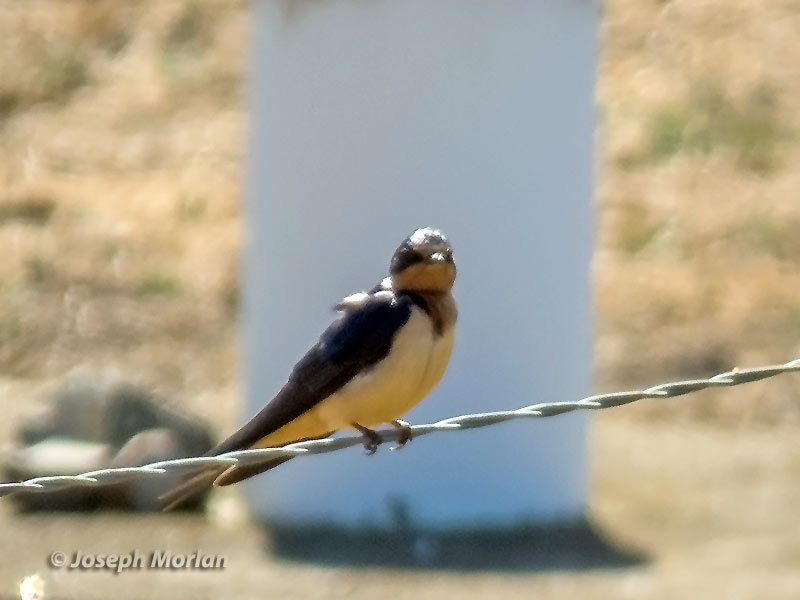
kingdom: Animalia
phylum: Chordata
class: Aves
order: Passeriformes
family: Hirundinidae
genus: Hirundo
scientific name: Hirundo rustica
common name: Barn swallow
